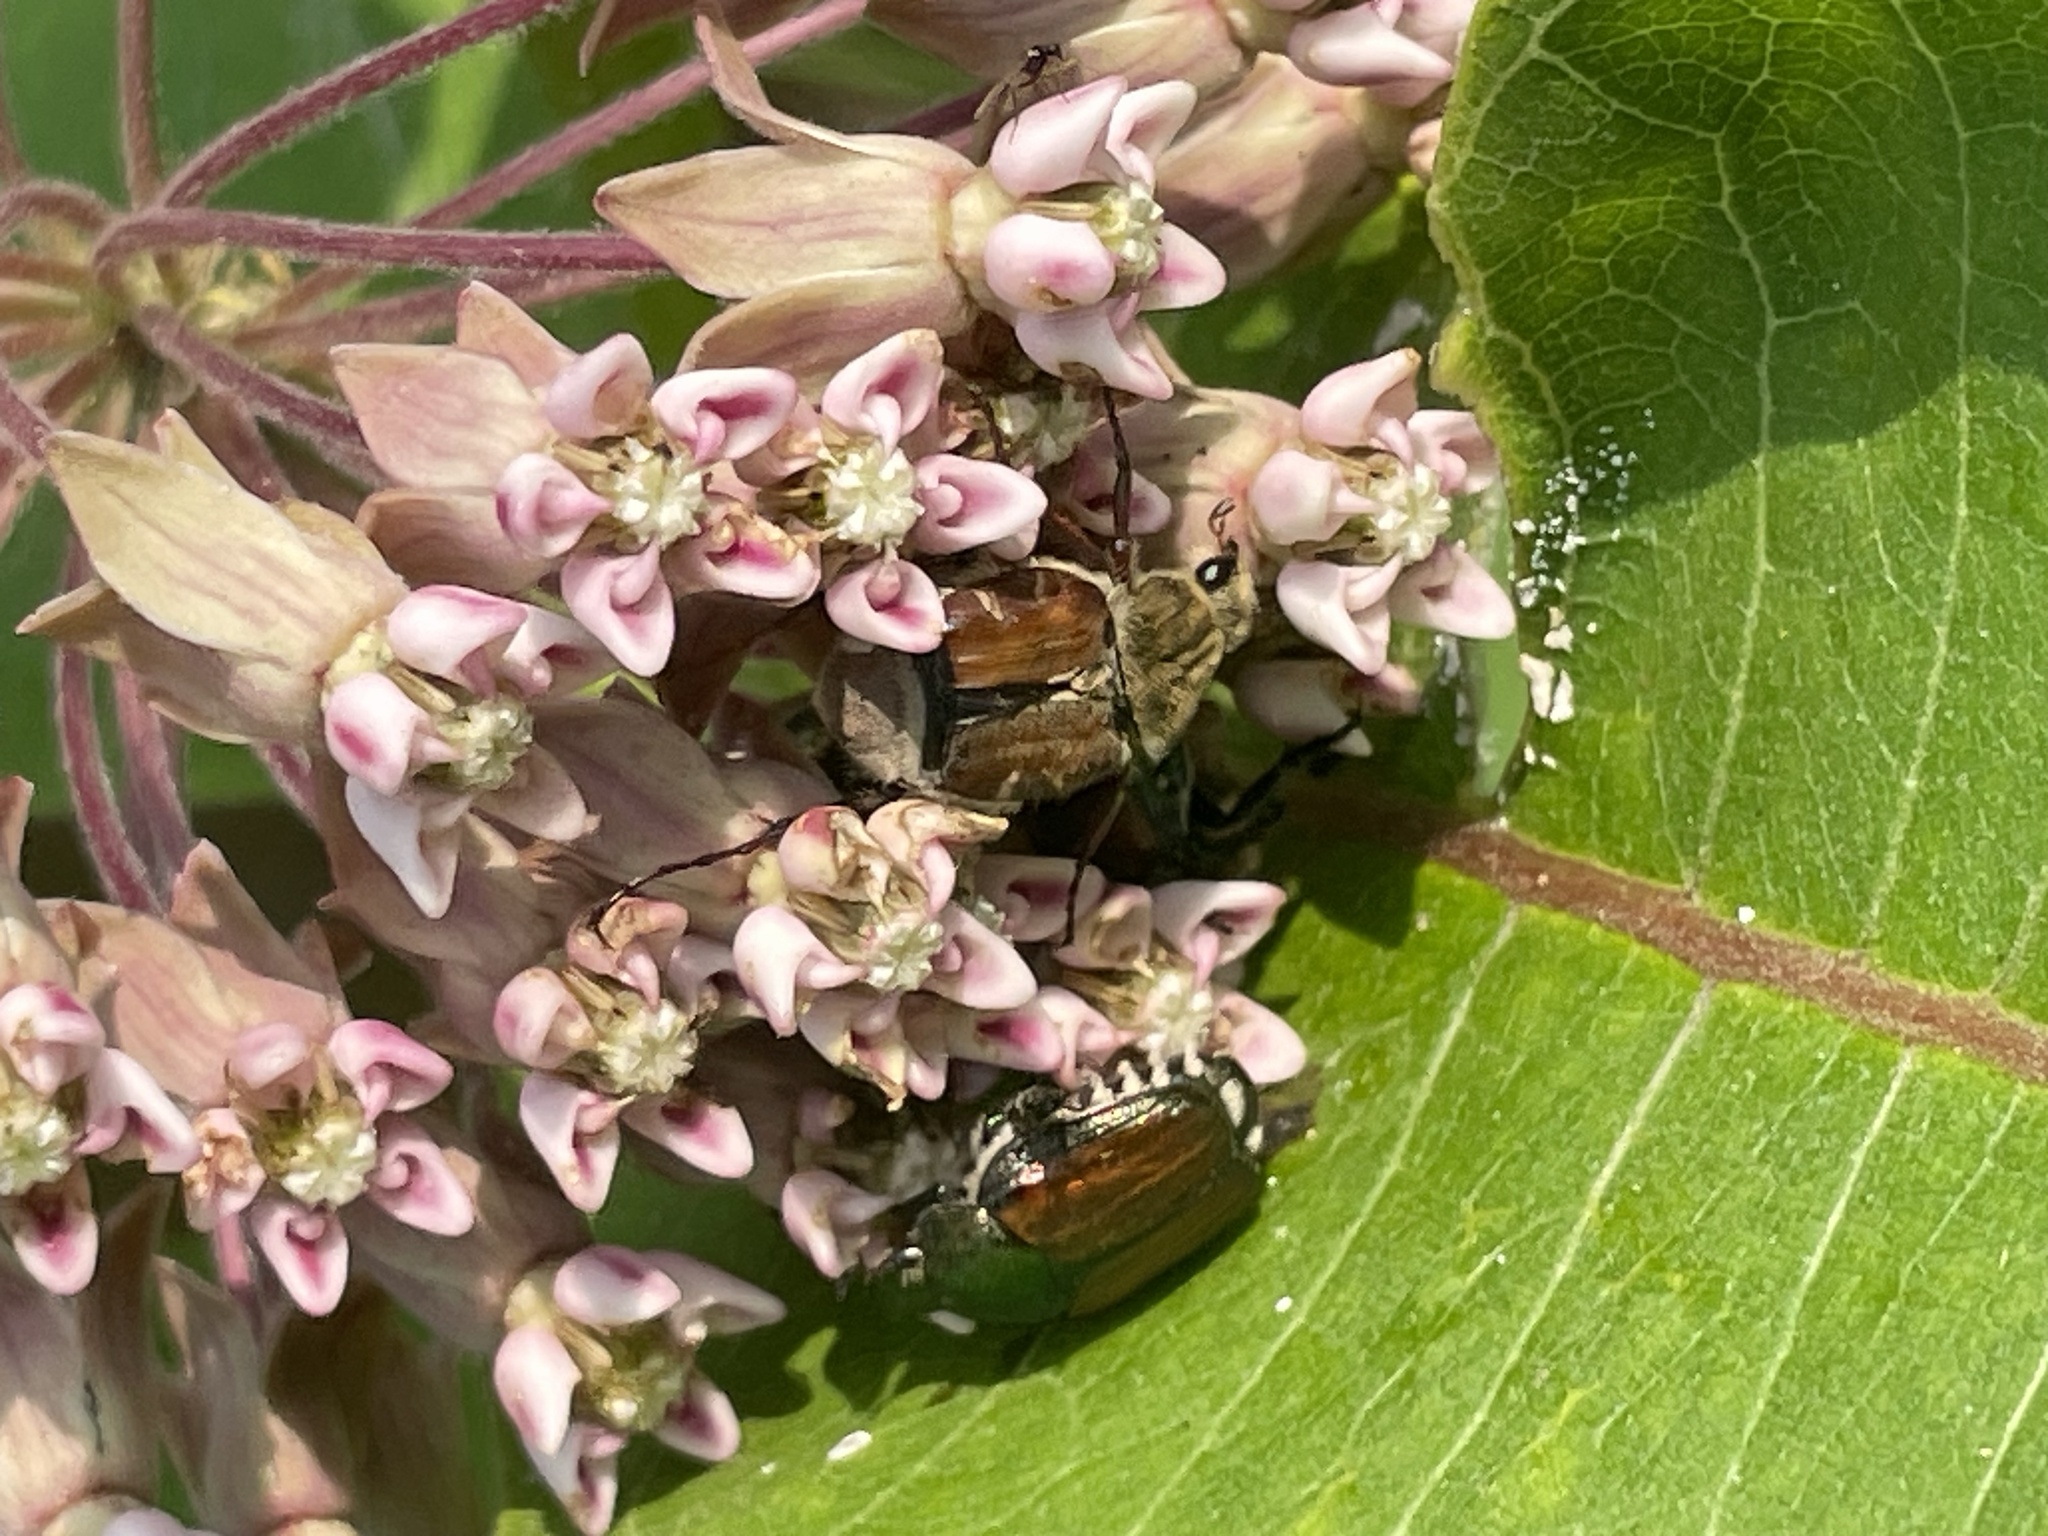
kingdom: Animalia
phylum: Arthropoda
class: Insecta
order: Coleoptera
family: Scarabaeidae
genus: Popillia
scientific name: Popillia japonica
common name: Japanese beetle
